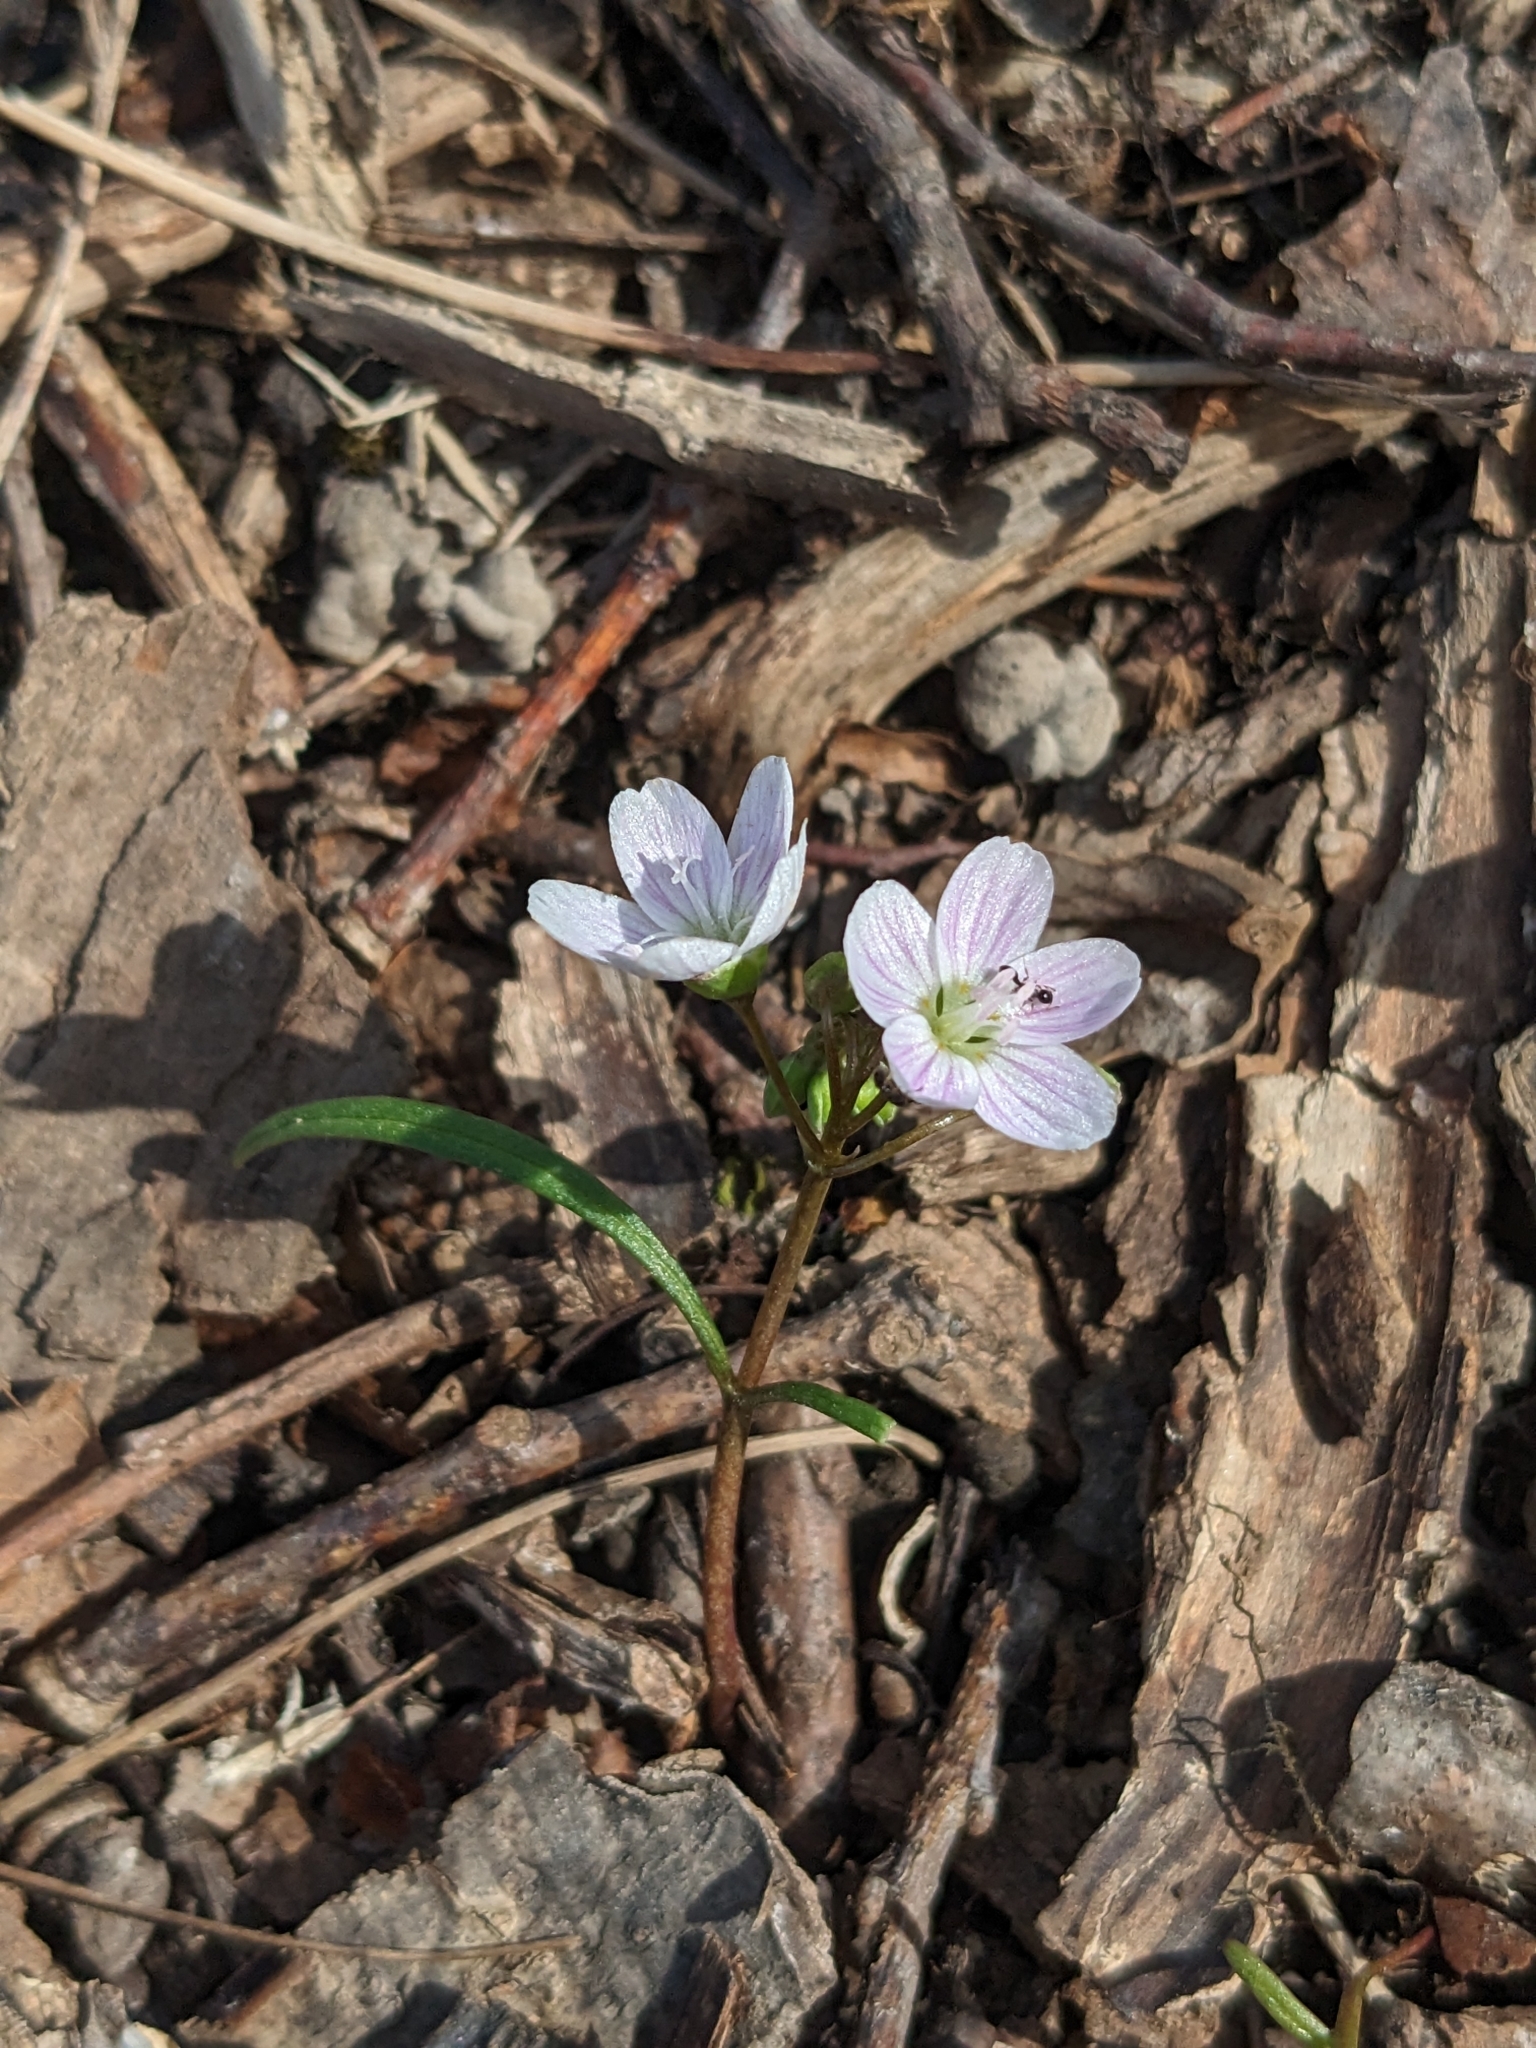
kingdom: Plantae
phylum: Tracheophyta
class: Magnoliopsida
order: Caryophyllales
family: Montiaceae
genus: Claytonia
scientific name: Claytonia virginica
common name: Virginia springbeauty
